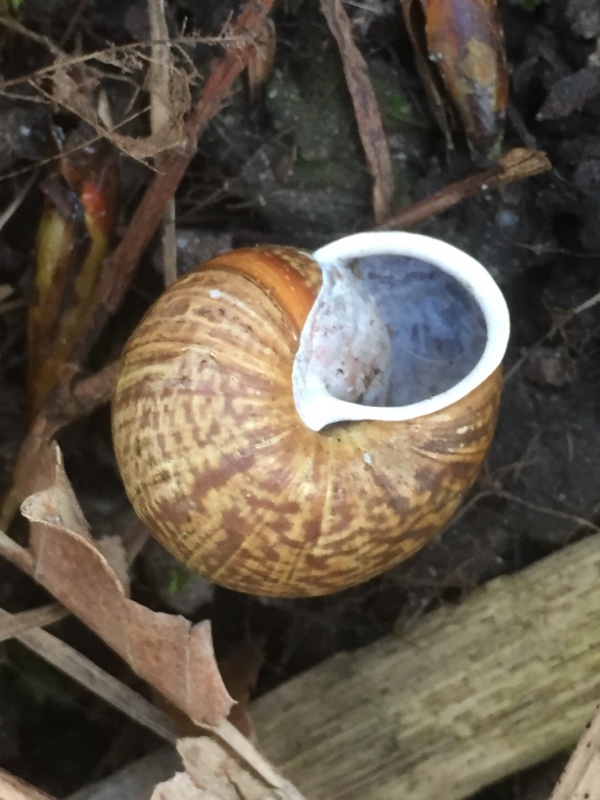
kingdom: Animalia
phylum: Mollusca
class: Gastropoda
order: Stylommatophora
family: Helicidae
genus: Arianta
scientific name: Arianta arbustorum
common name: Copse snail
